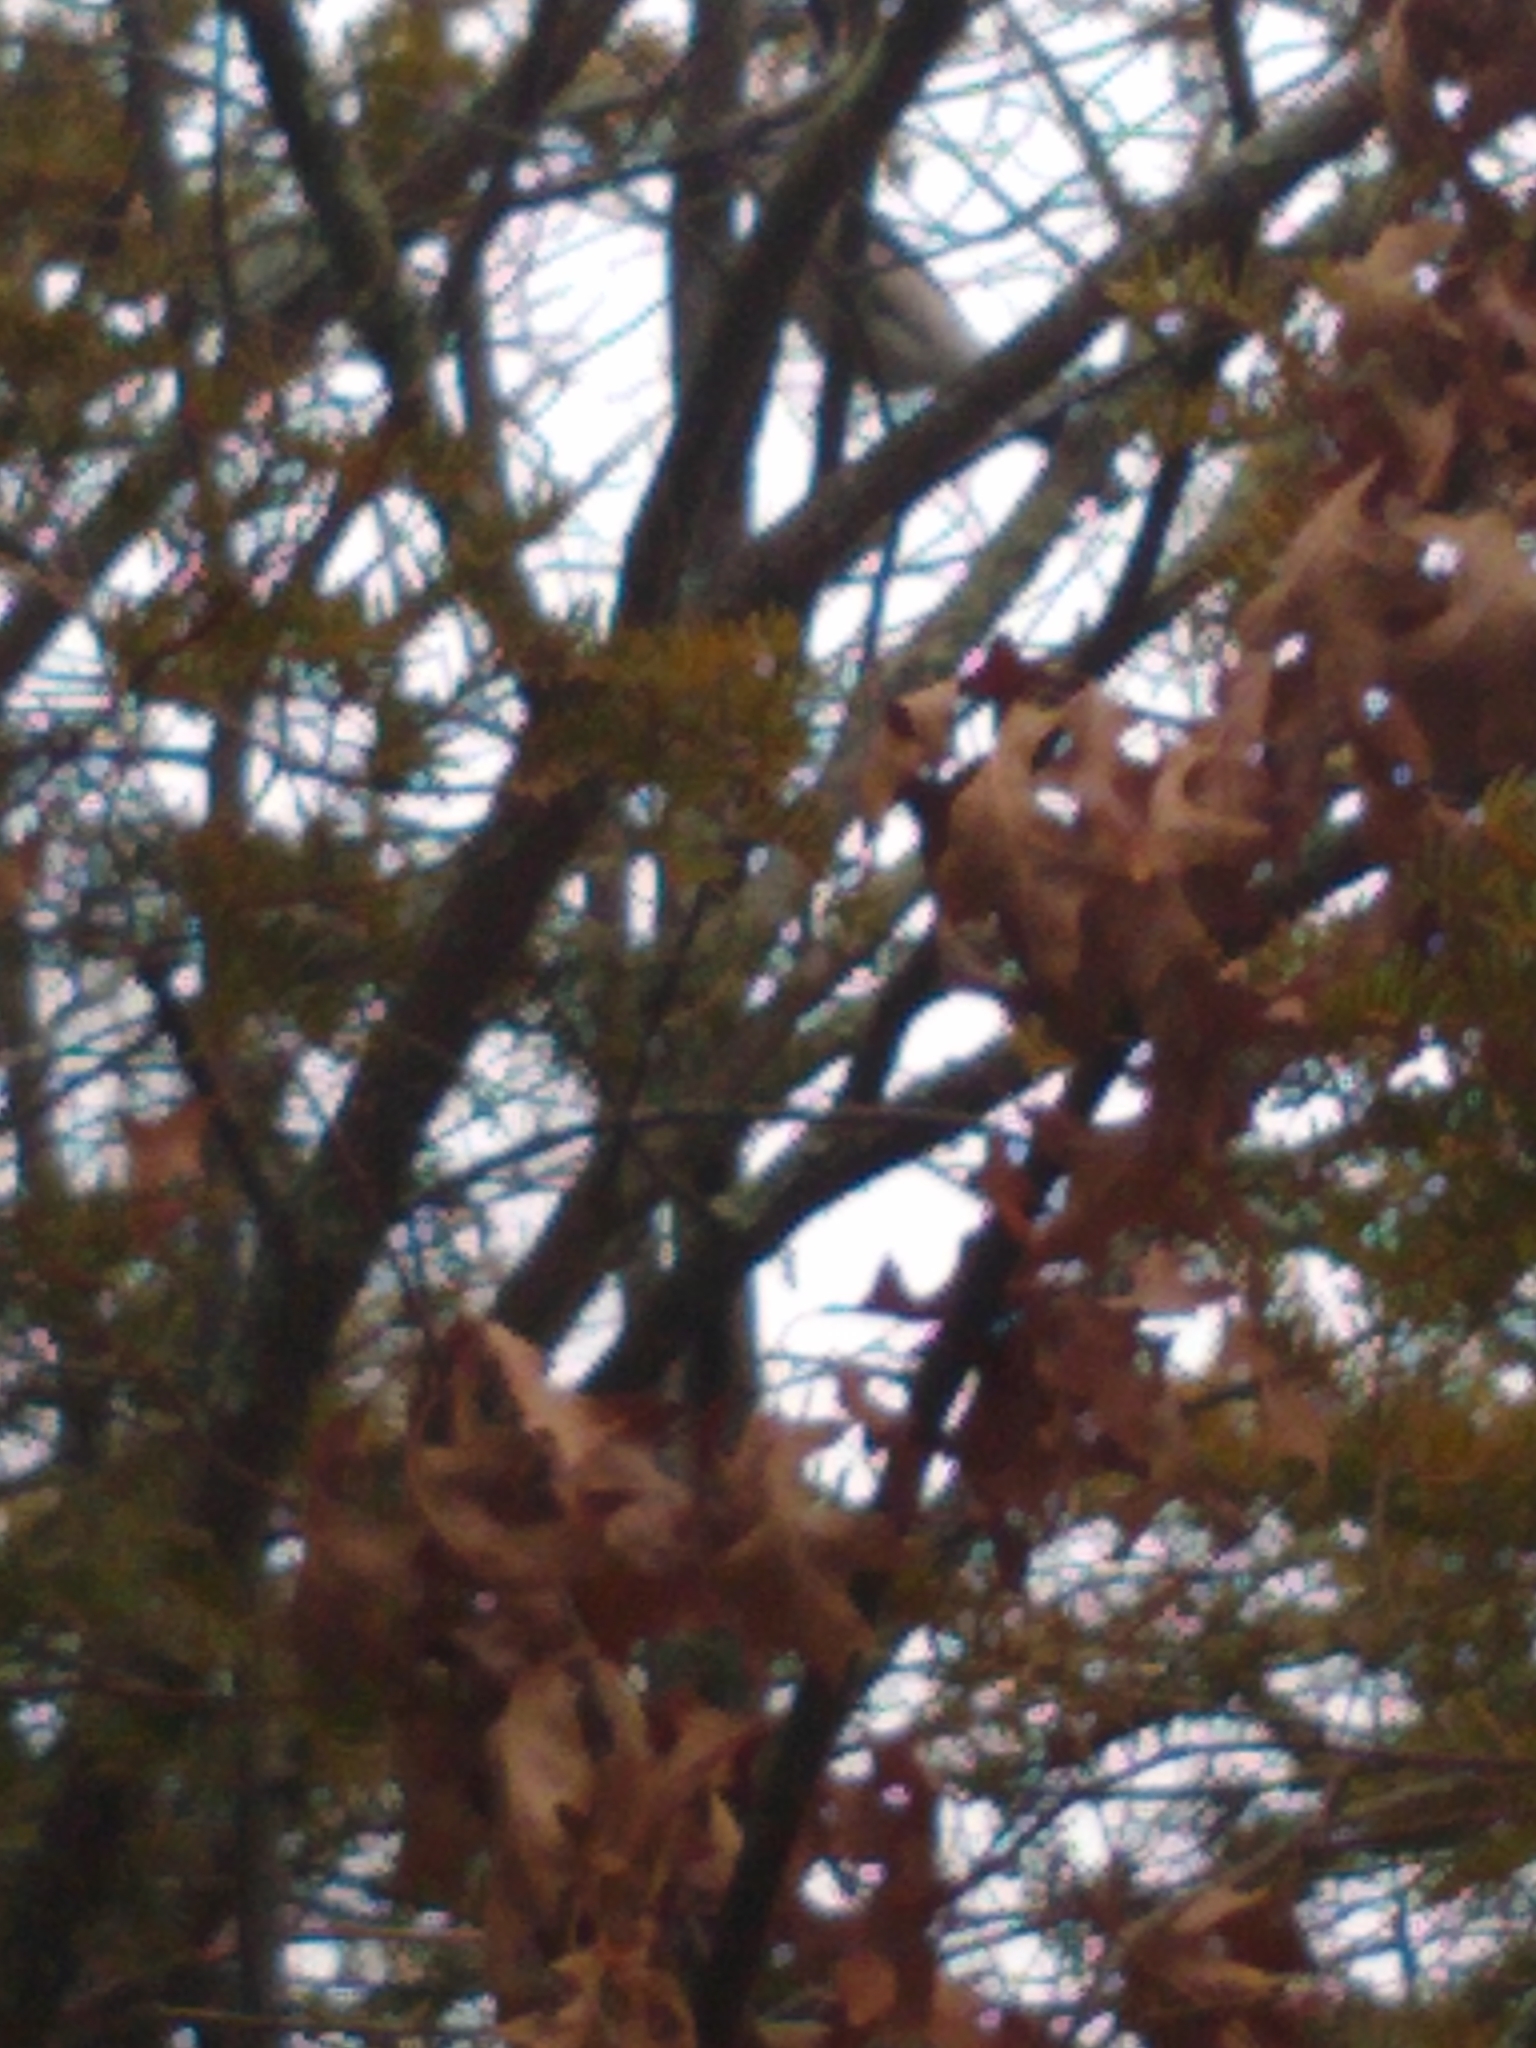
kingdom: Animalia
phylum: Chordata
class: Aves
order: Passeriformes
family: Corvidae
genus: Cyanocitta
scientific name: Cyanocitta cristata
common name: Blue jay
